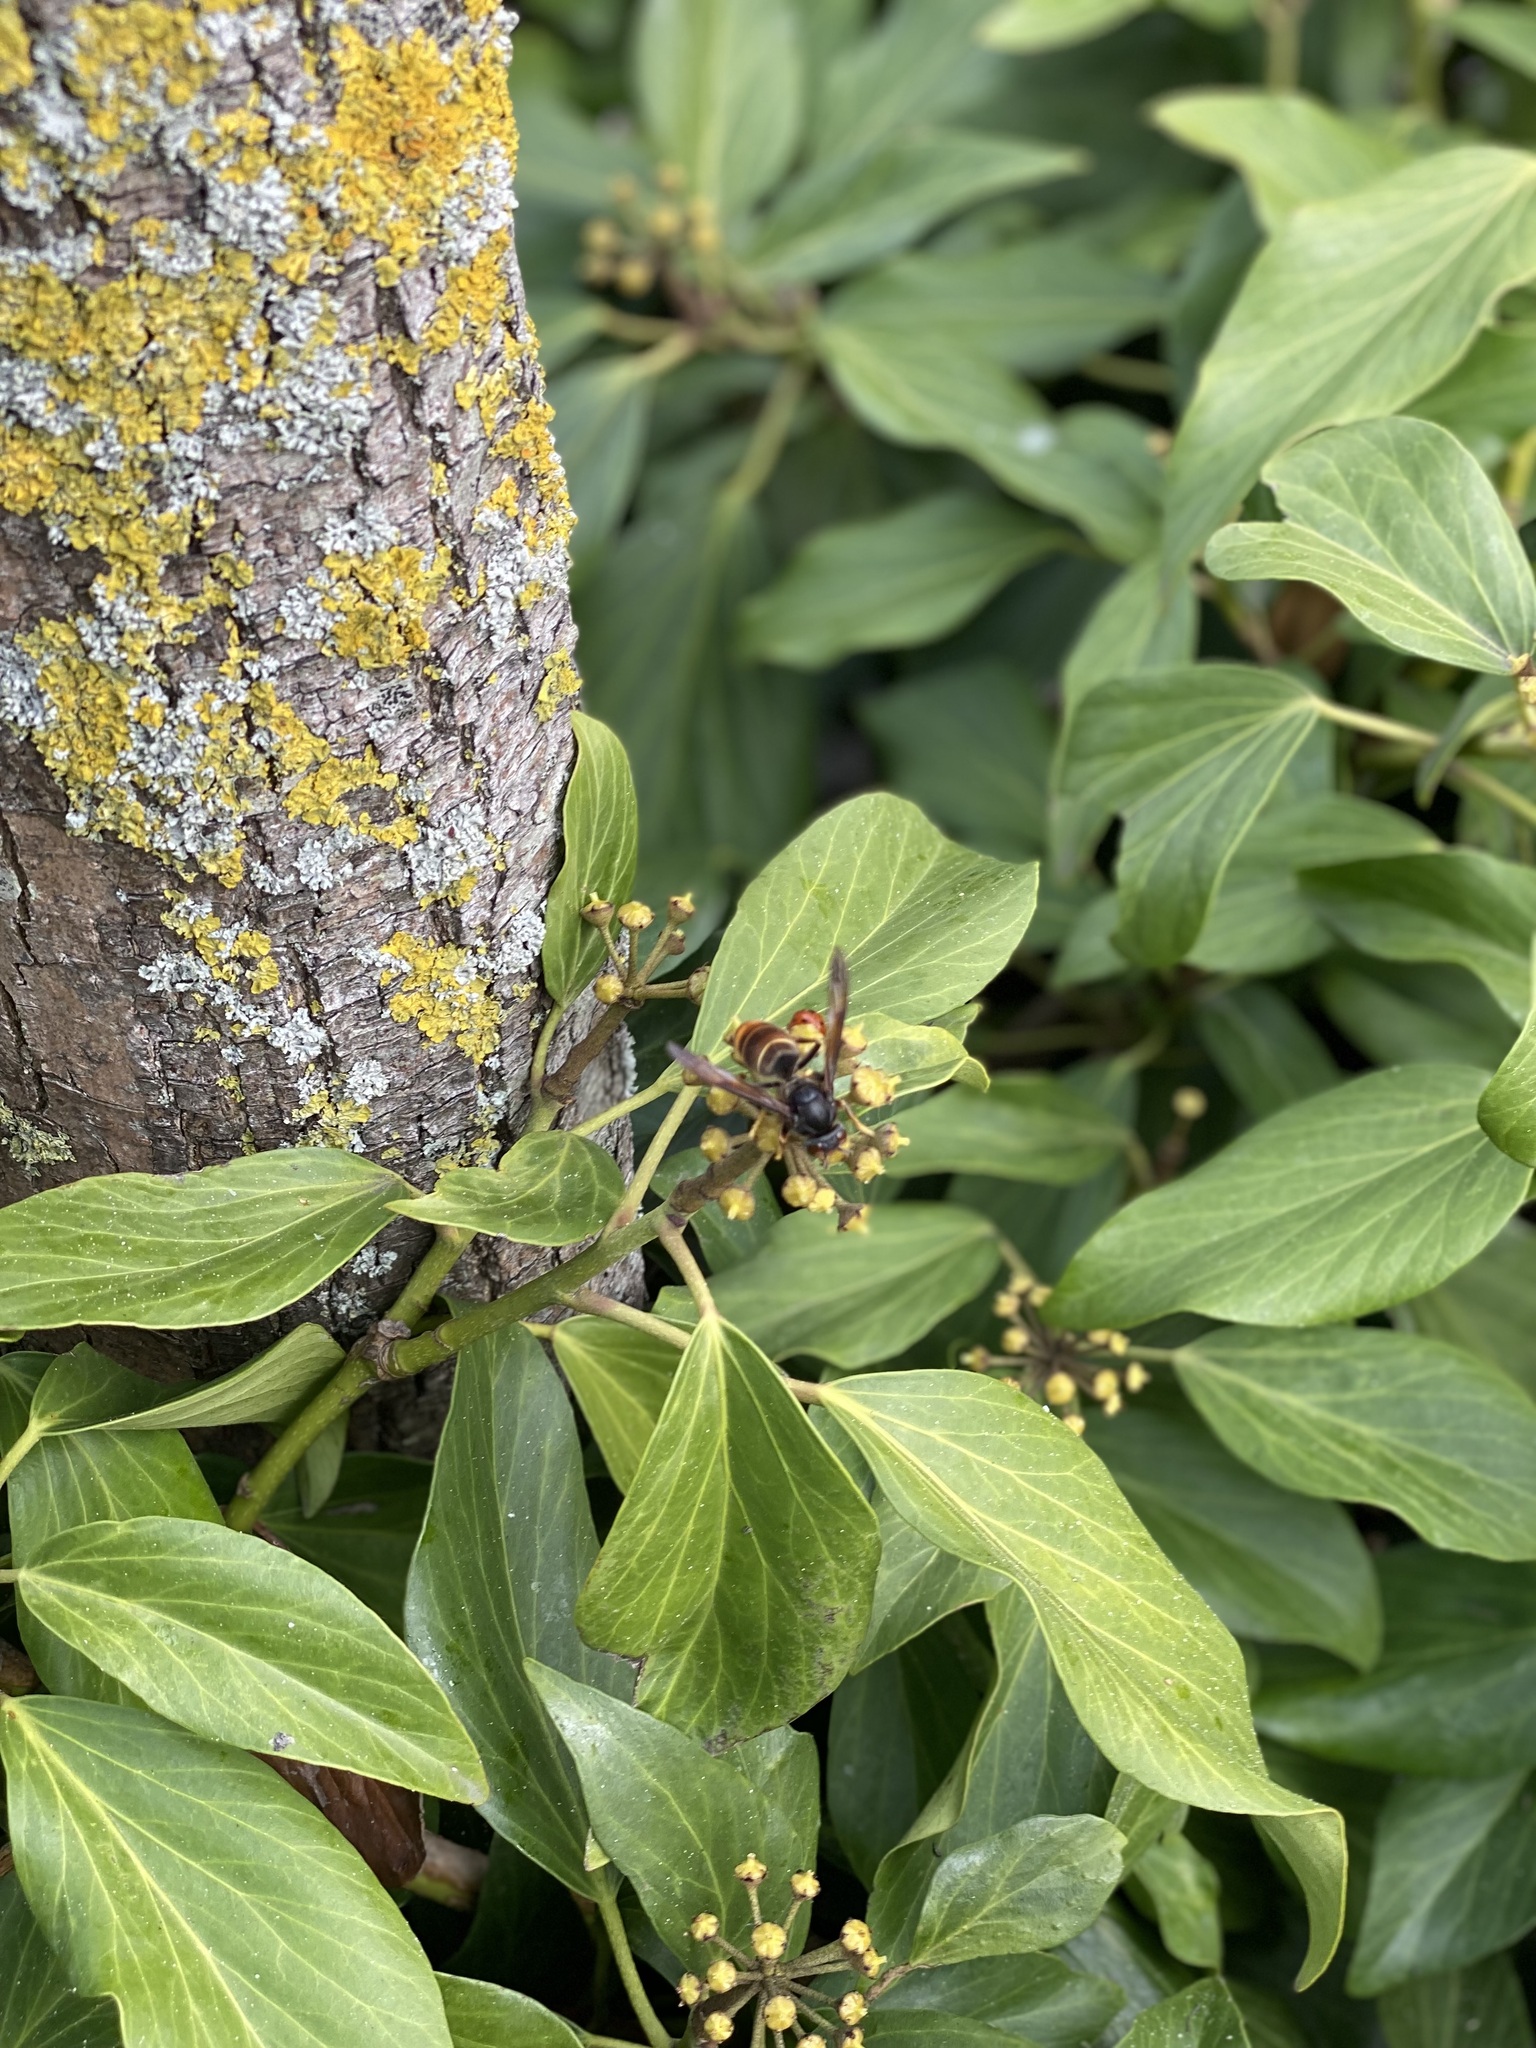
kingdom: Animalia
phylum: Arthropoda
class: Insecta
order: Hymenoptera
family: Vespidae
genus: Vespa
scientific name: Vespa velutina
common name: Asian hornet
